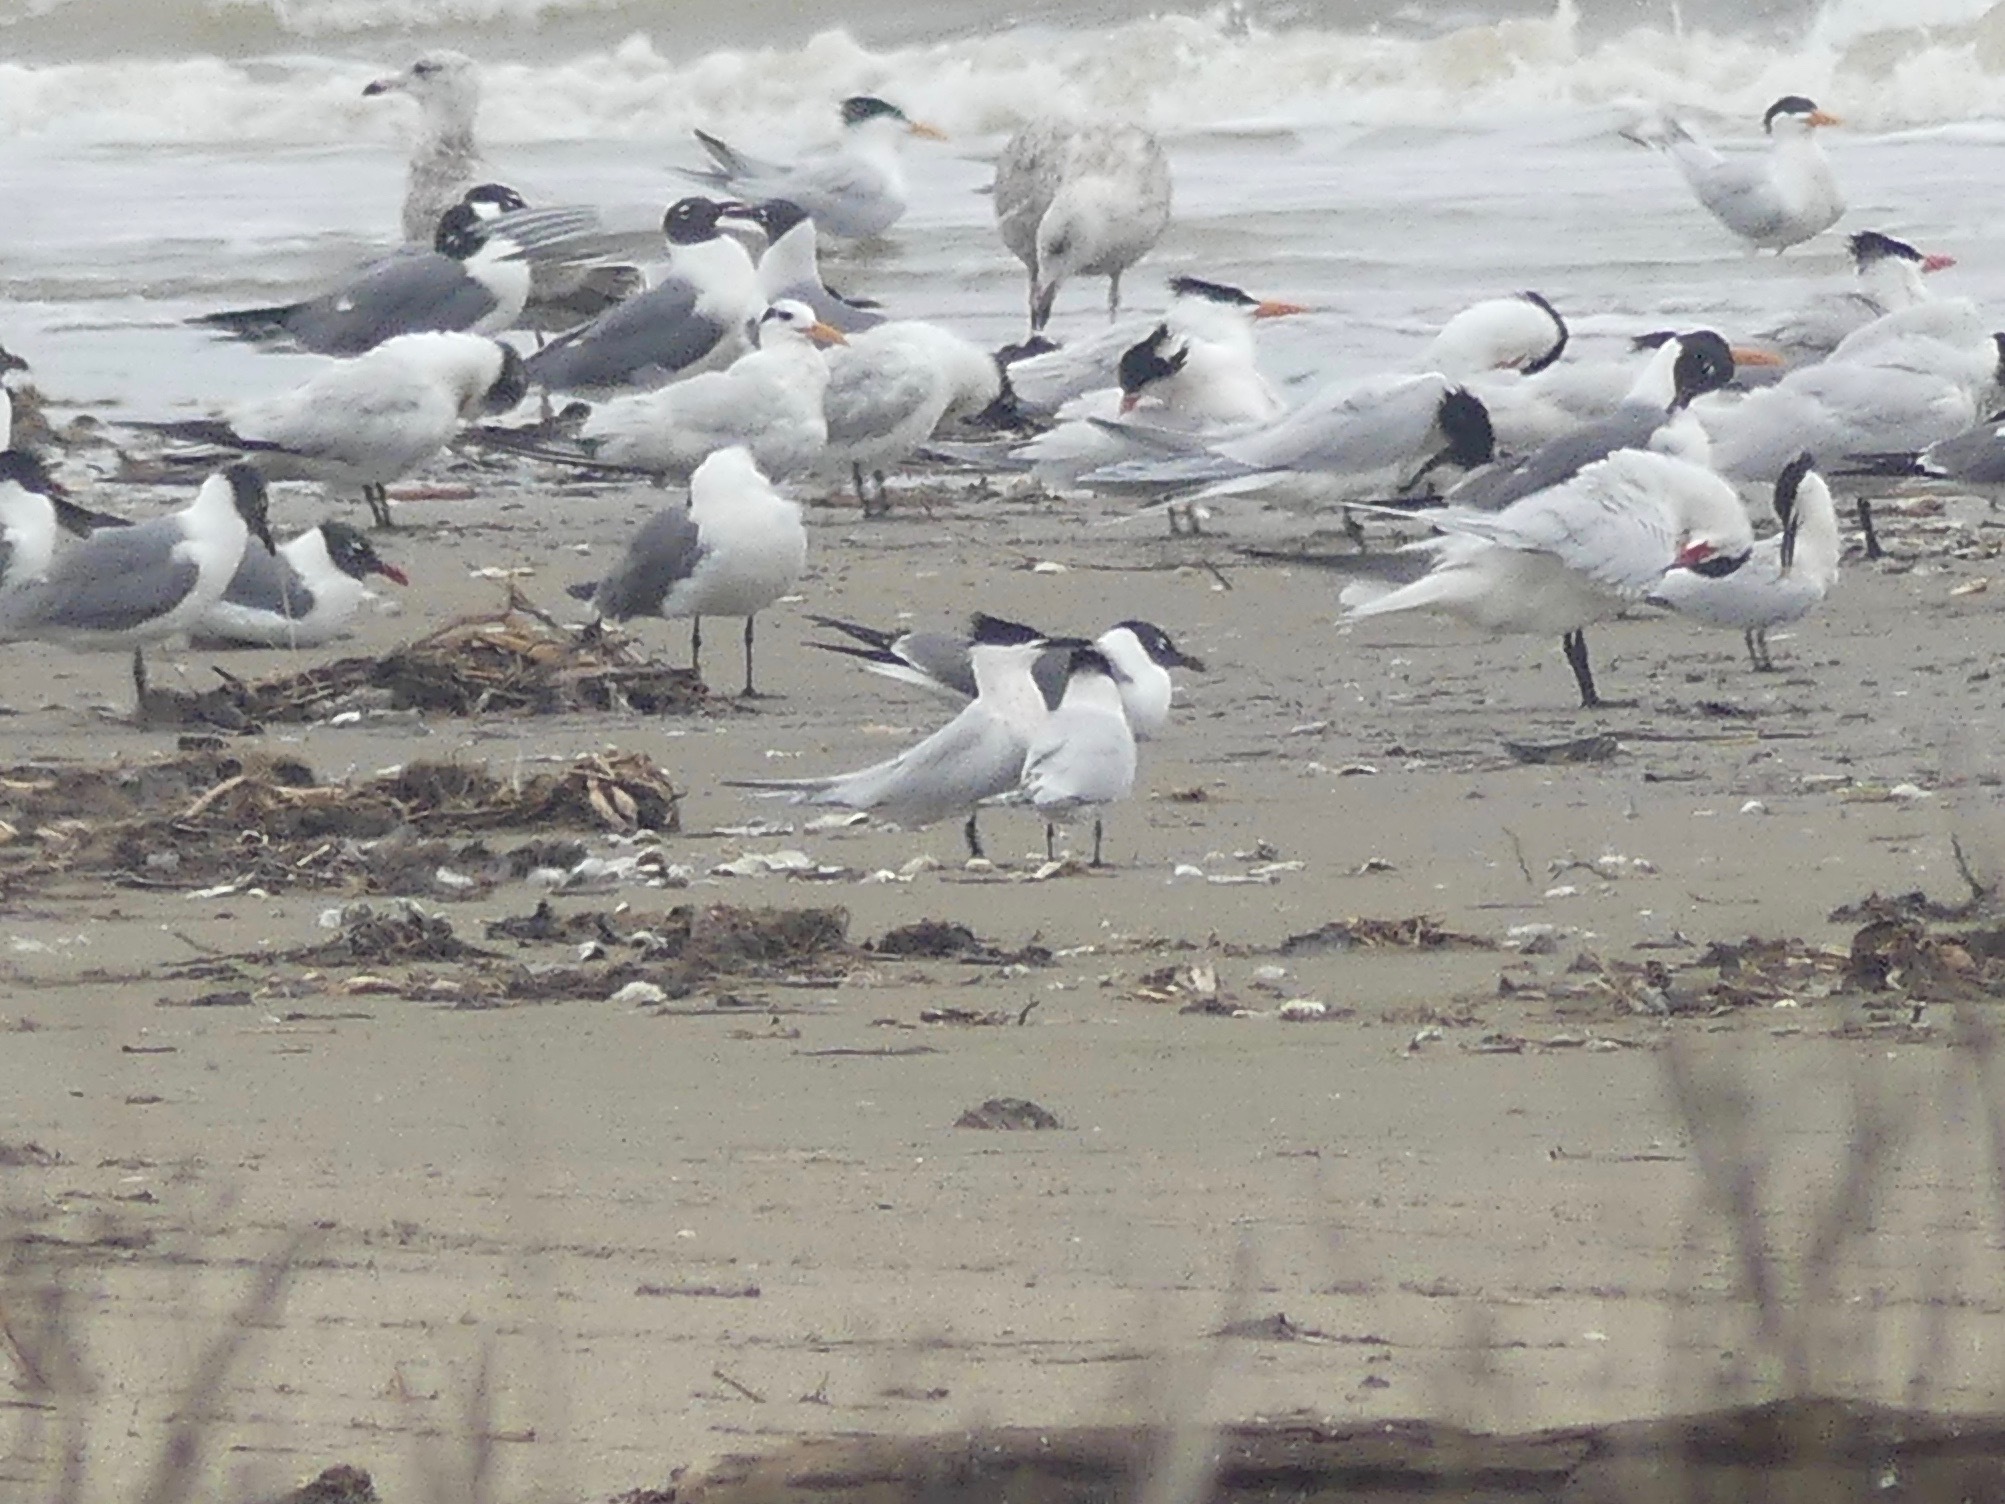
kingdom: Animalia
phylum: Chordata
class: Aves
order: Charadriiformes
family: Laridae
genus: Thalasseus
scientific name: Thalasseus sandvicensis
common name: Sandwich tern
